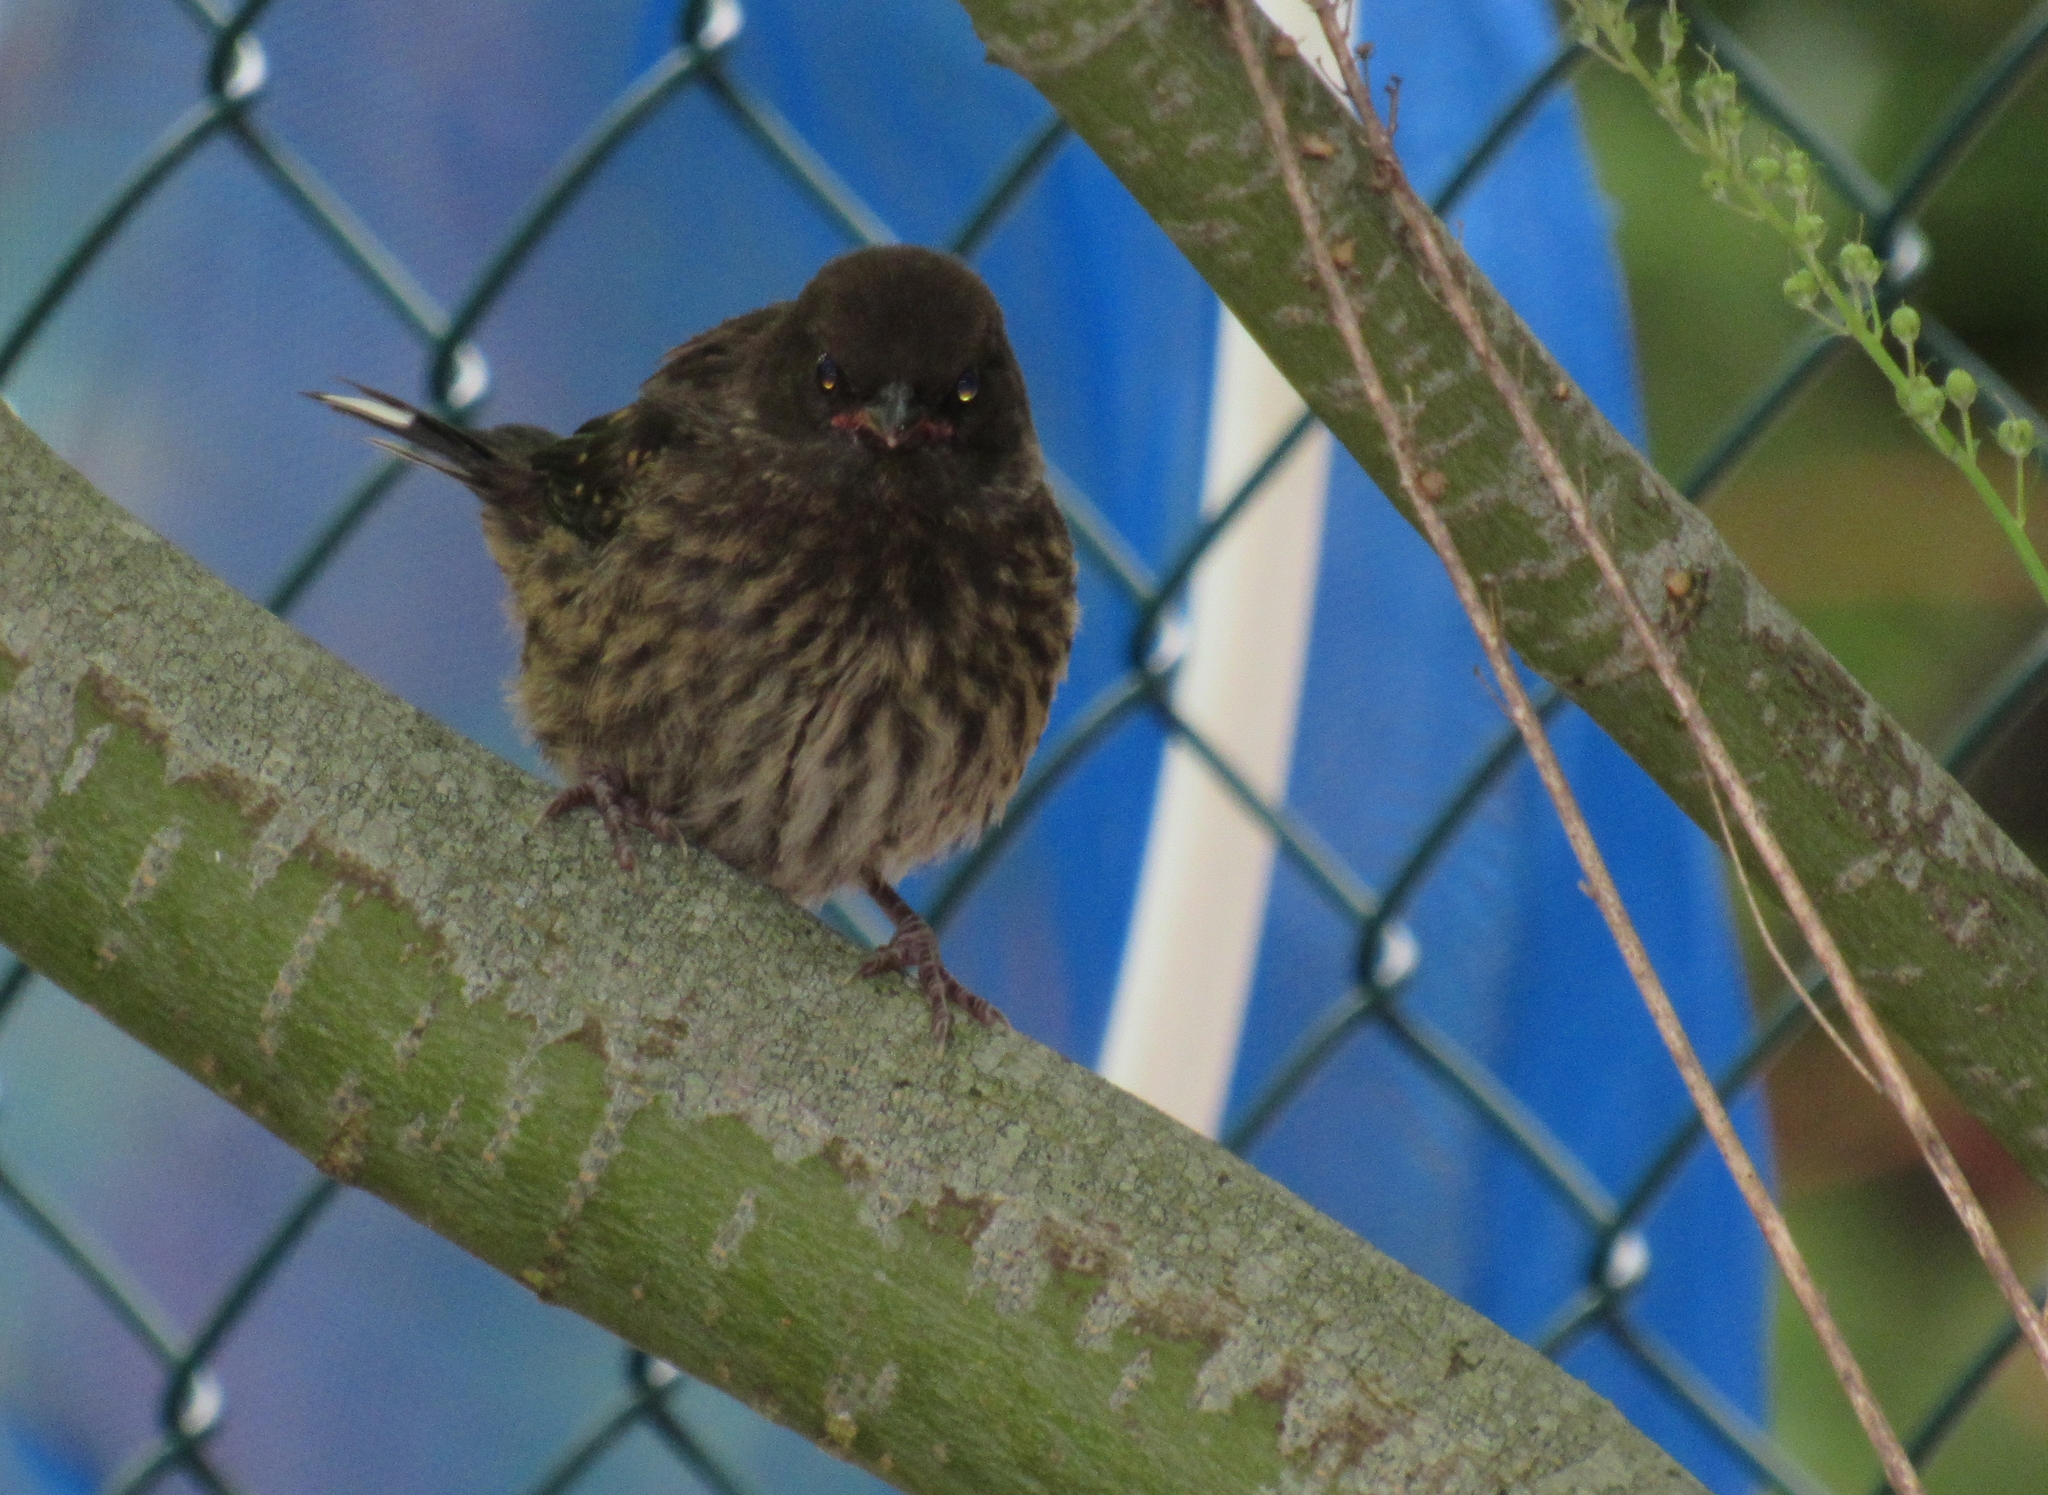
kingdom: Animalia
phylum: Chordata
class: Aves
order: Passeriformes
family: Passerellidae
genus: Pipilo
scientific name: Pipilo maculatus
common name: Spotted towhee
